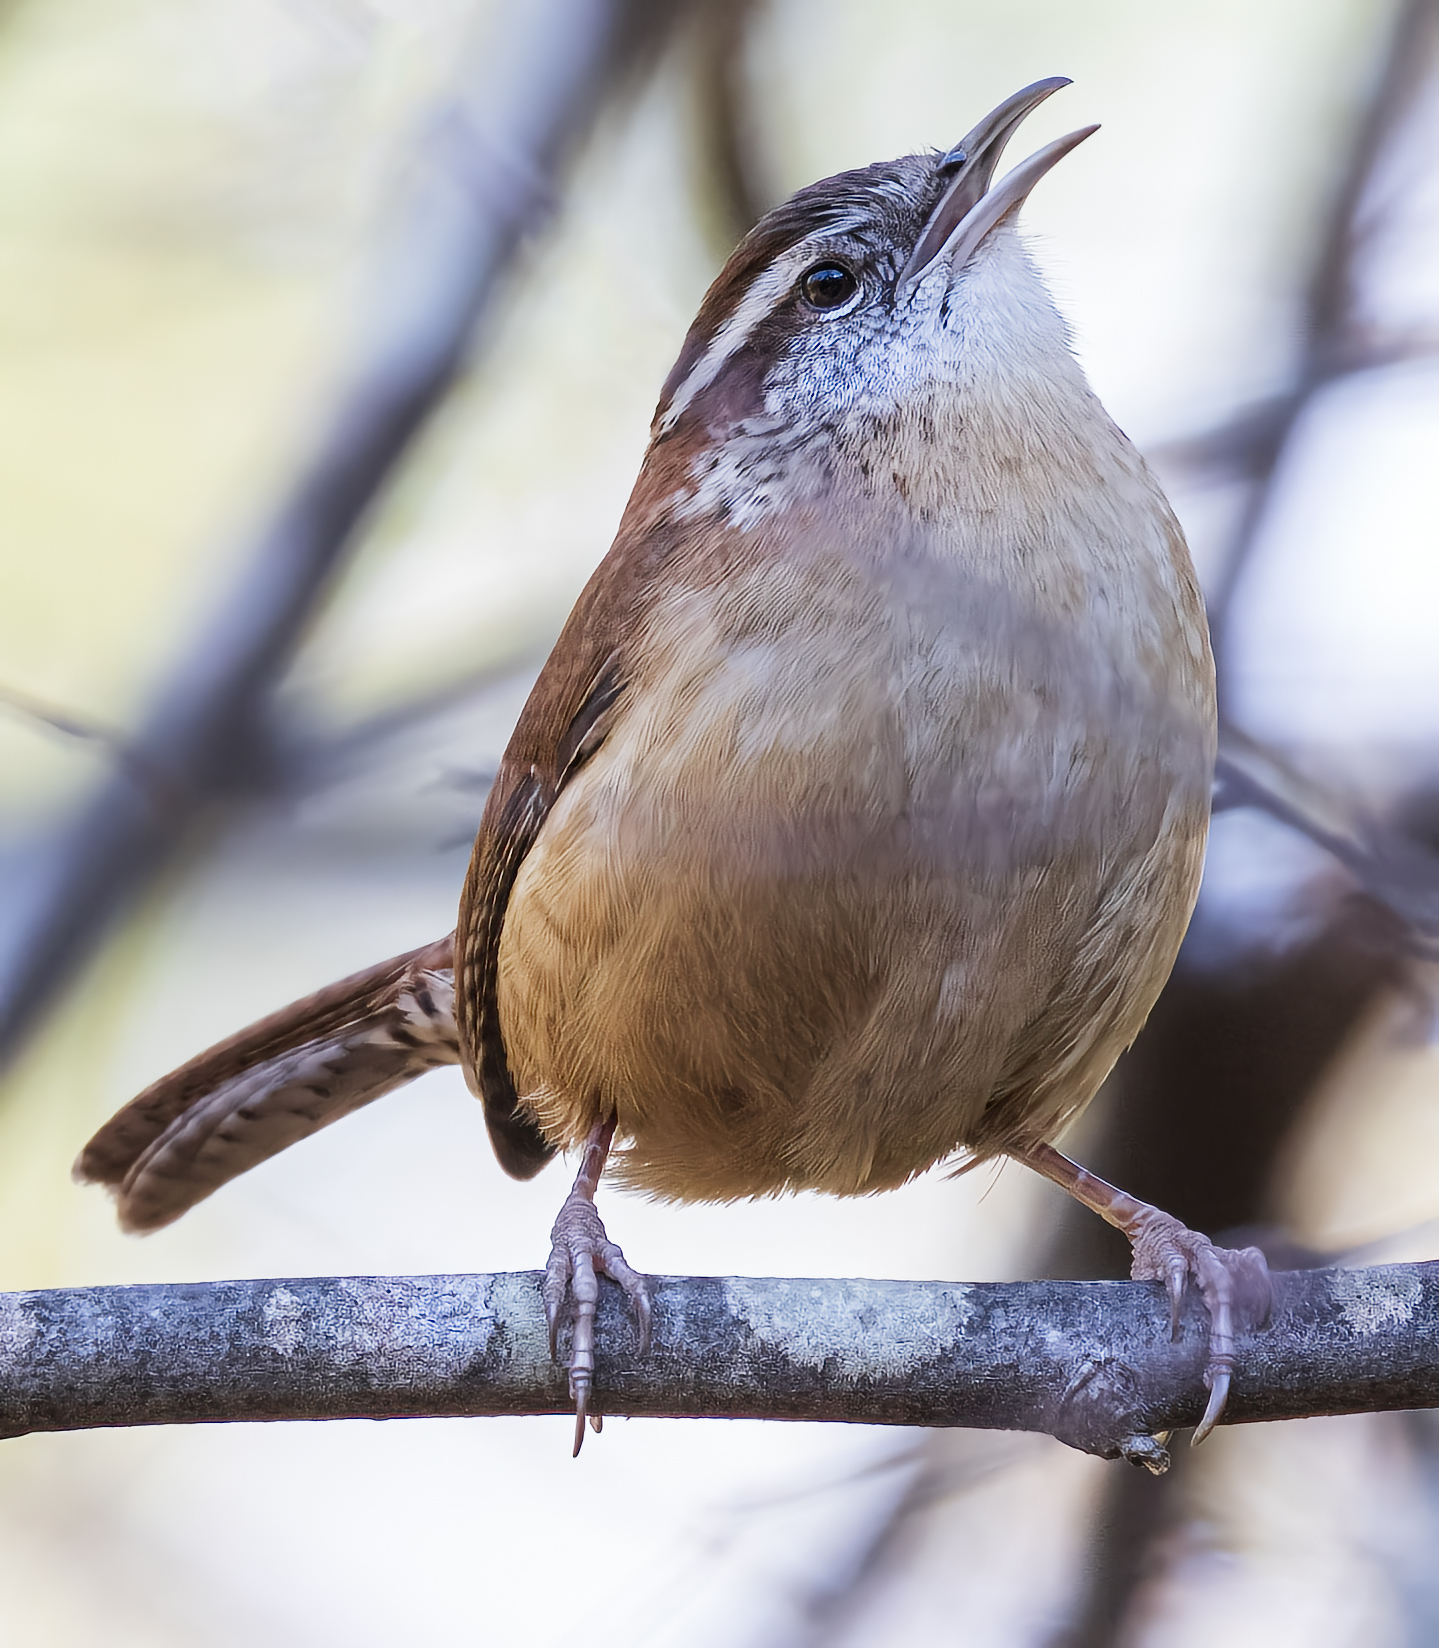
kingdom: Animalia
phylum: Chordata
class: Aves
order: Passeriformes
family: Troglodytidae
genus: Thryothorus
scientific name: Thryothorus ludovicianus
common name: Carolina wren
